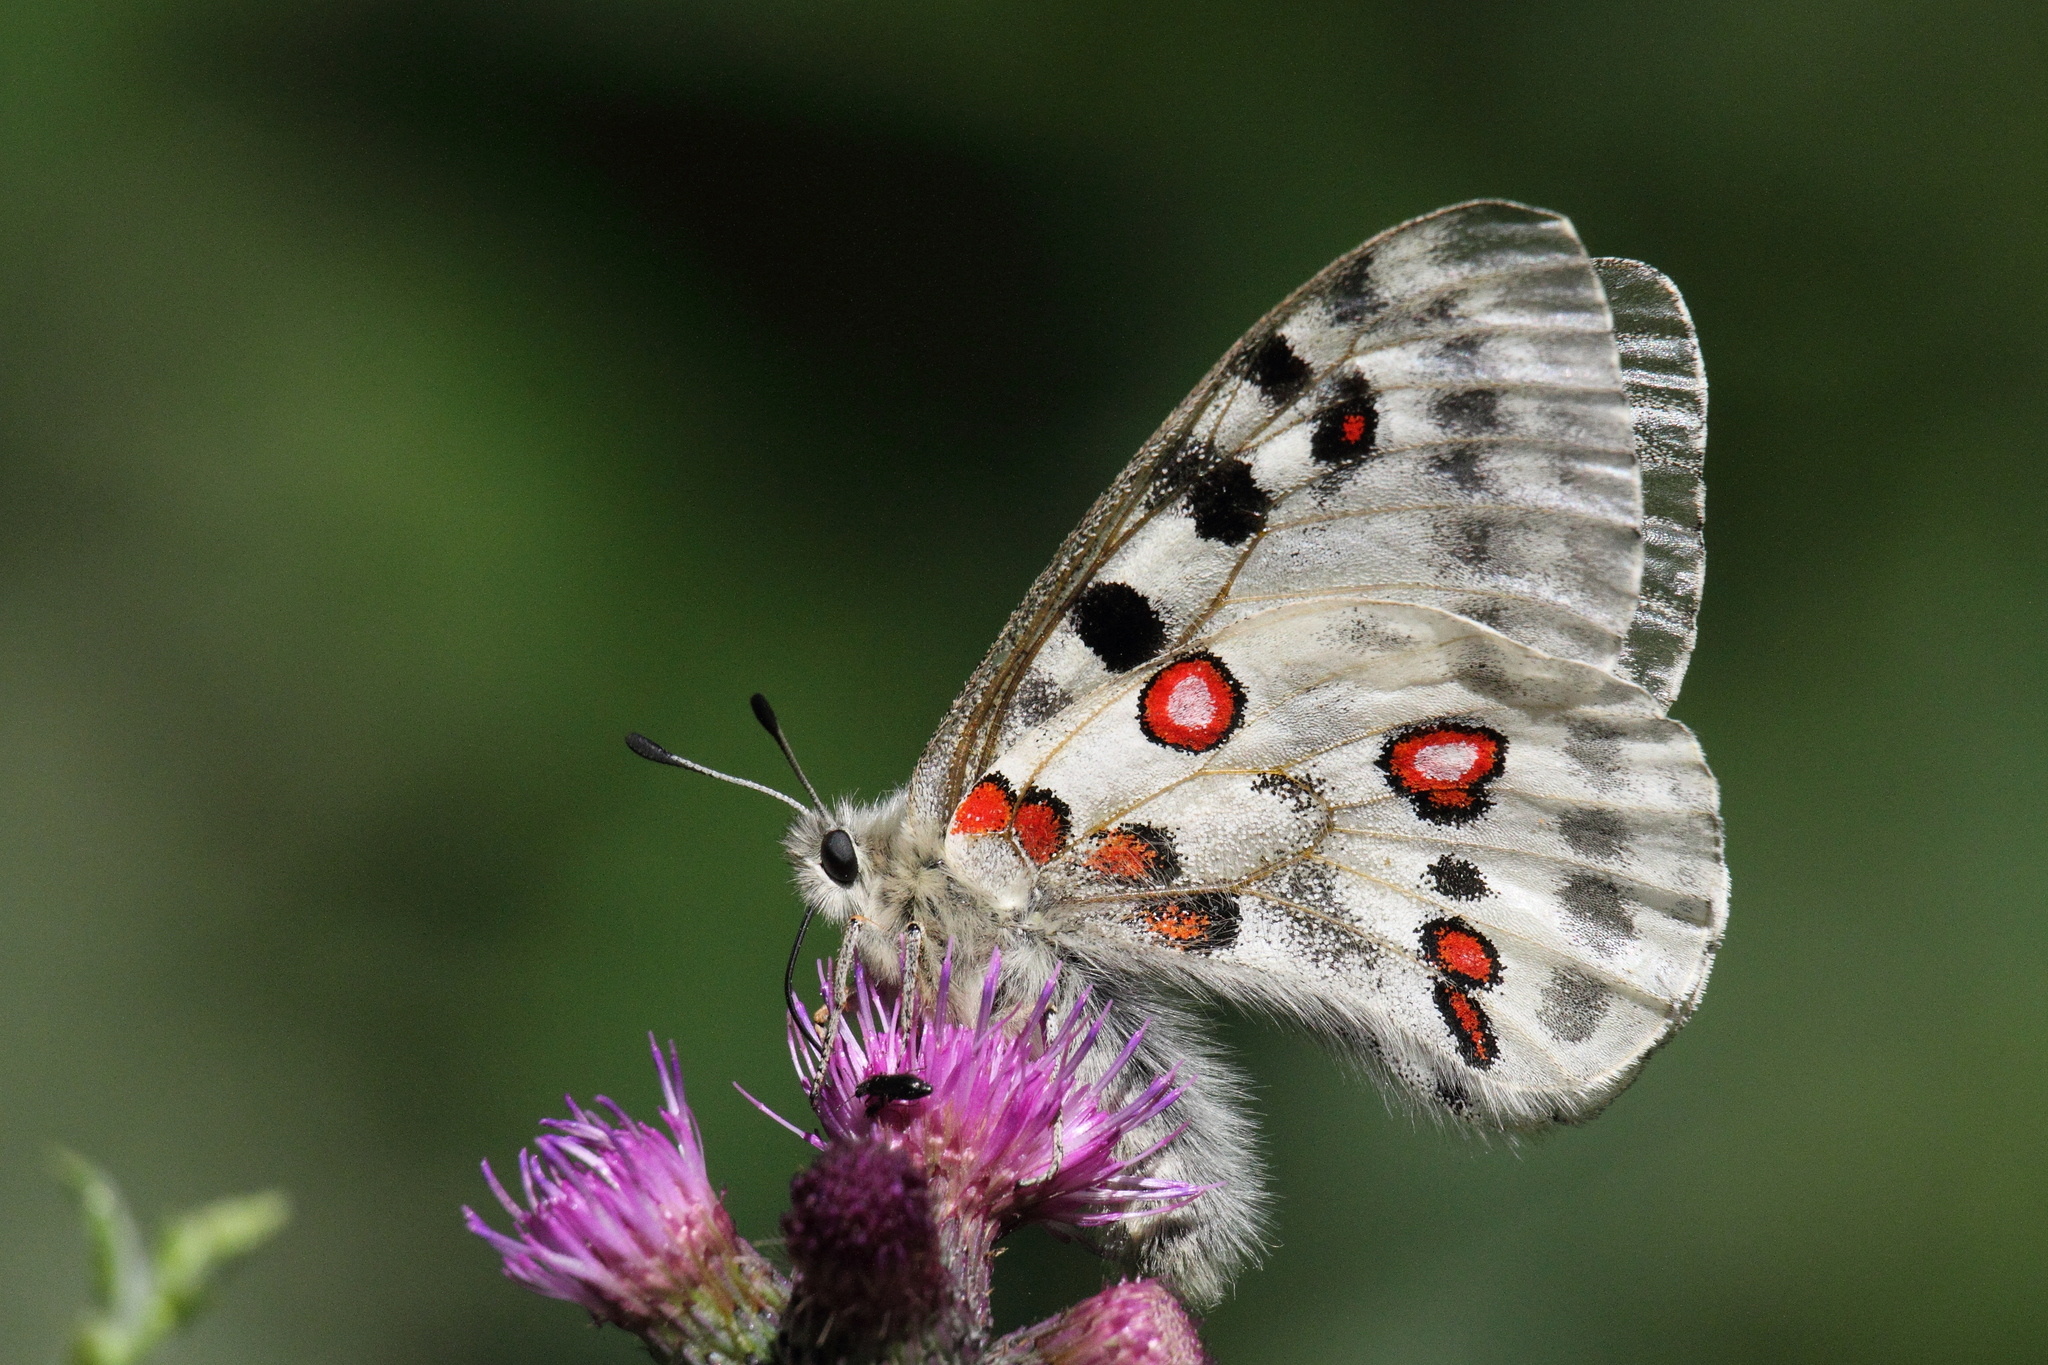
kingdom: Animalia
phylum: Arthropoda
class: Insecta
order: Lepidoptera
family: Papilionidae
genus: Parnassius
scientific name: Parnassius apollo
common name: Apollo
